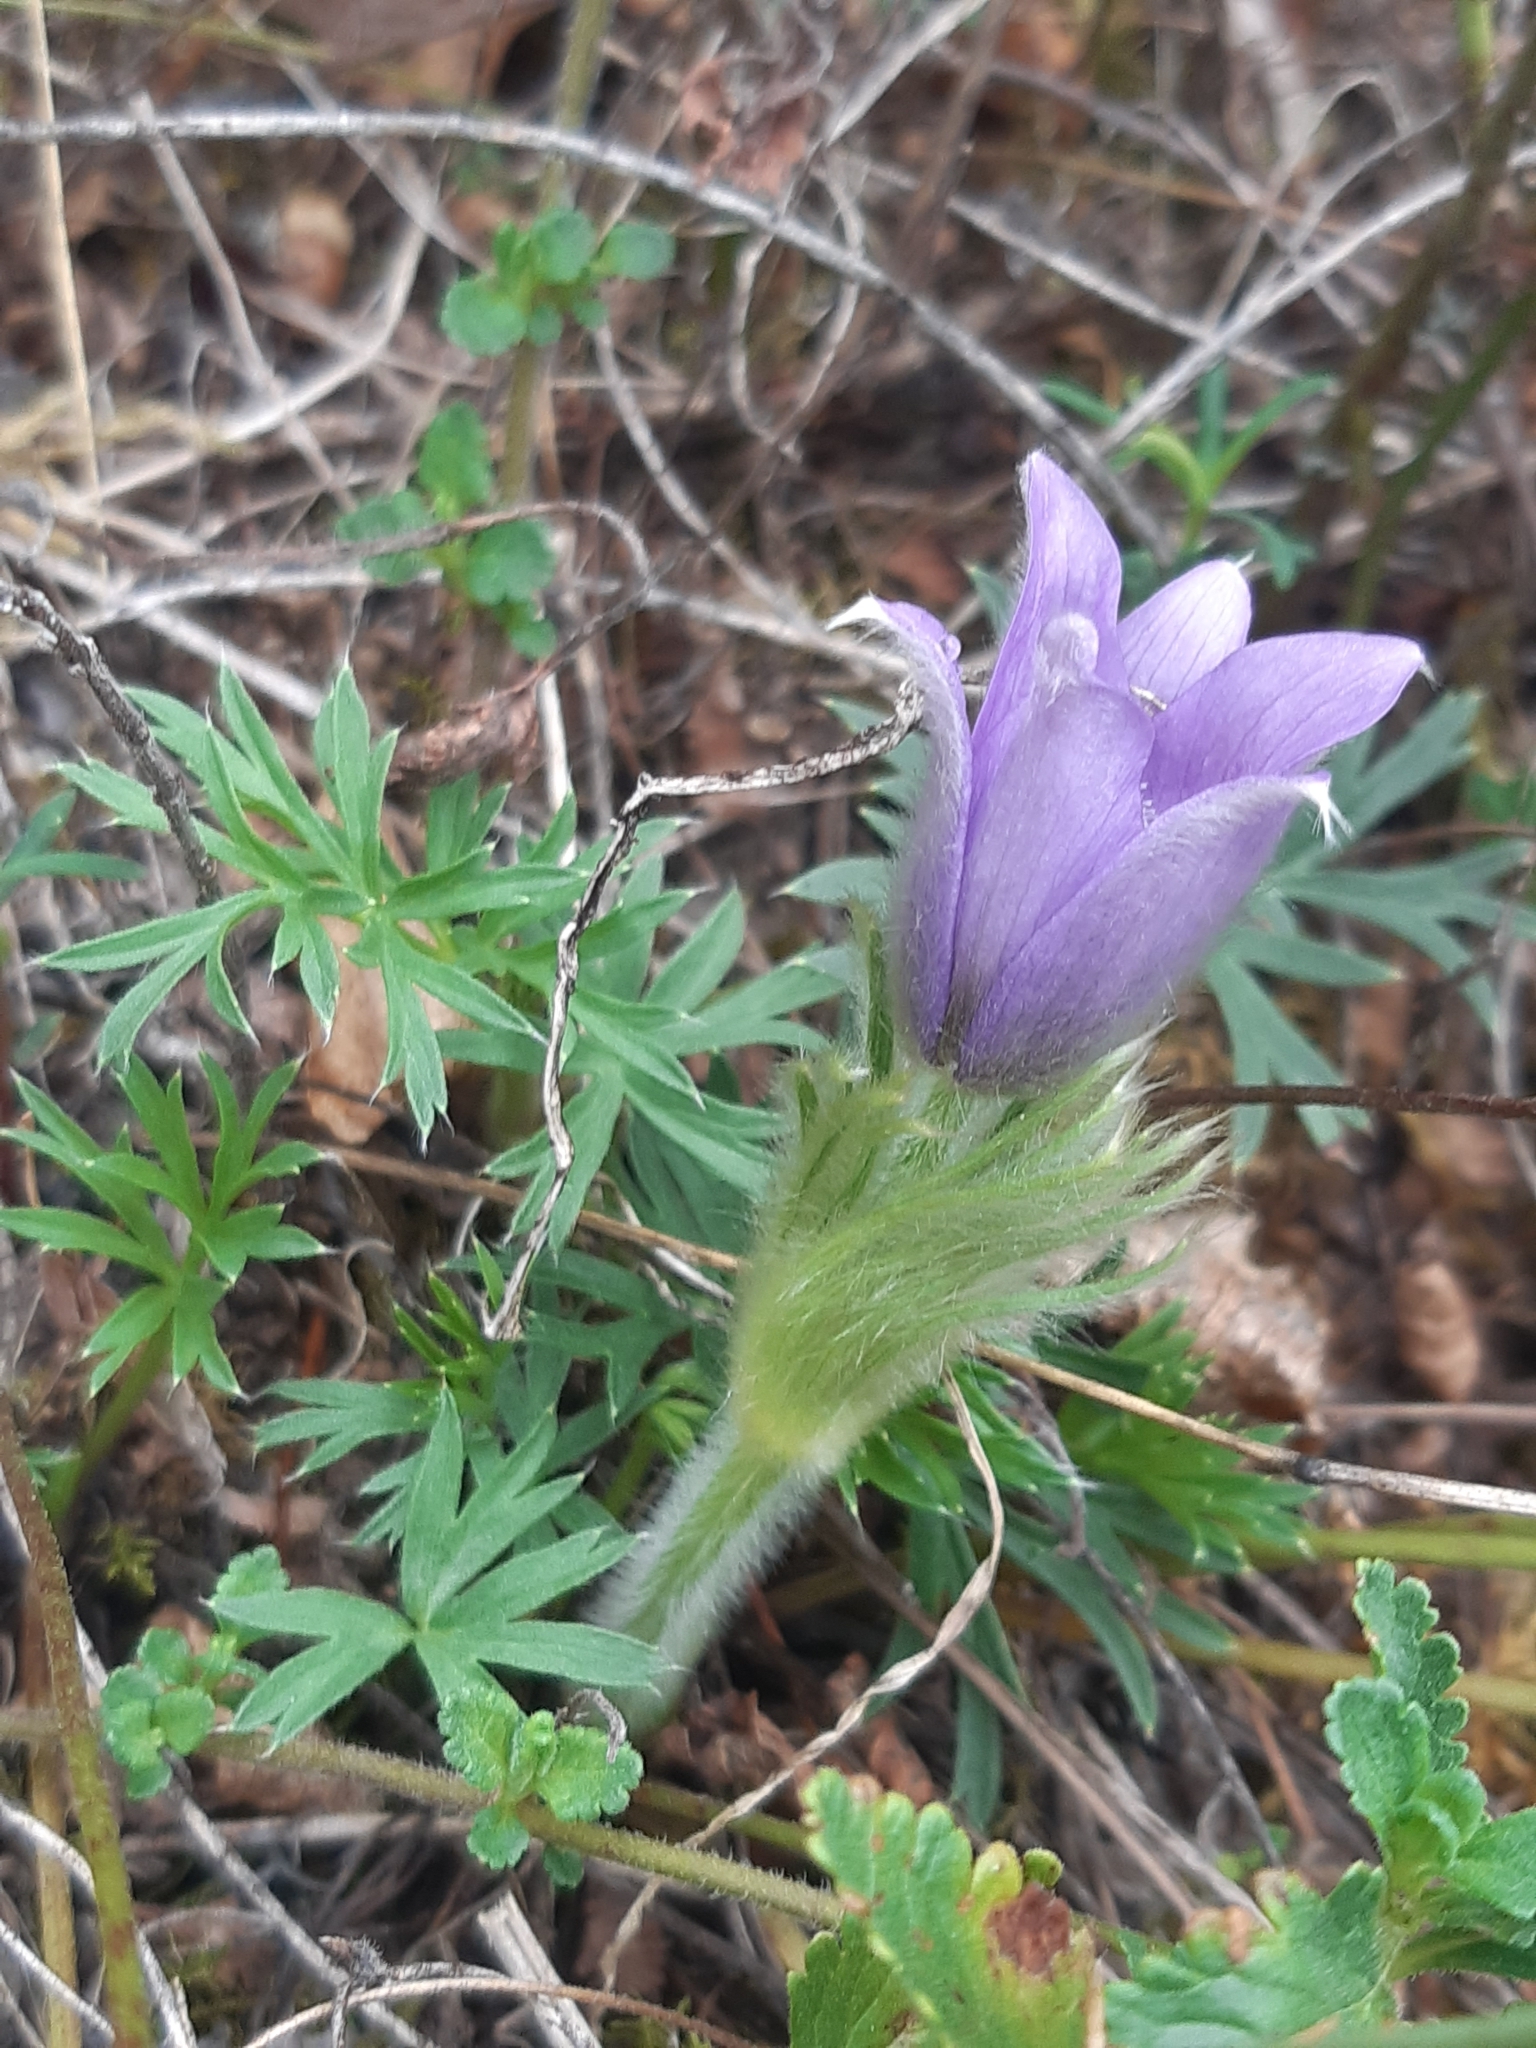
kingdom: Plantae
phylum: Tracheophyta
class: Magnoliopsida
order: Ranunculales
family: Ranunculaceae
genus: Pulsatilla
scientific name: Pulsatilla grandis
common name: Greater pasque flower
